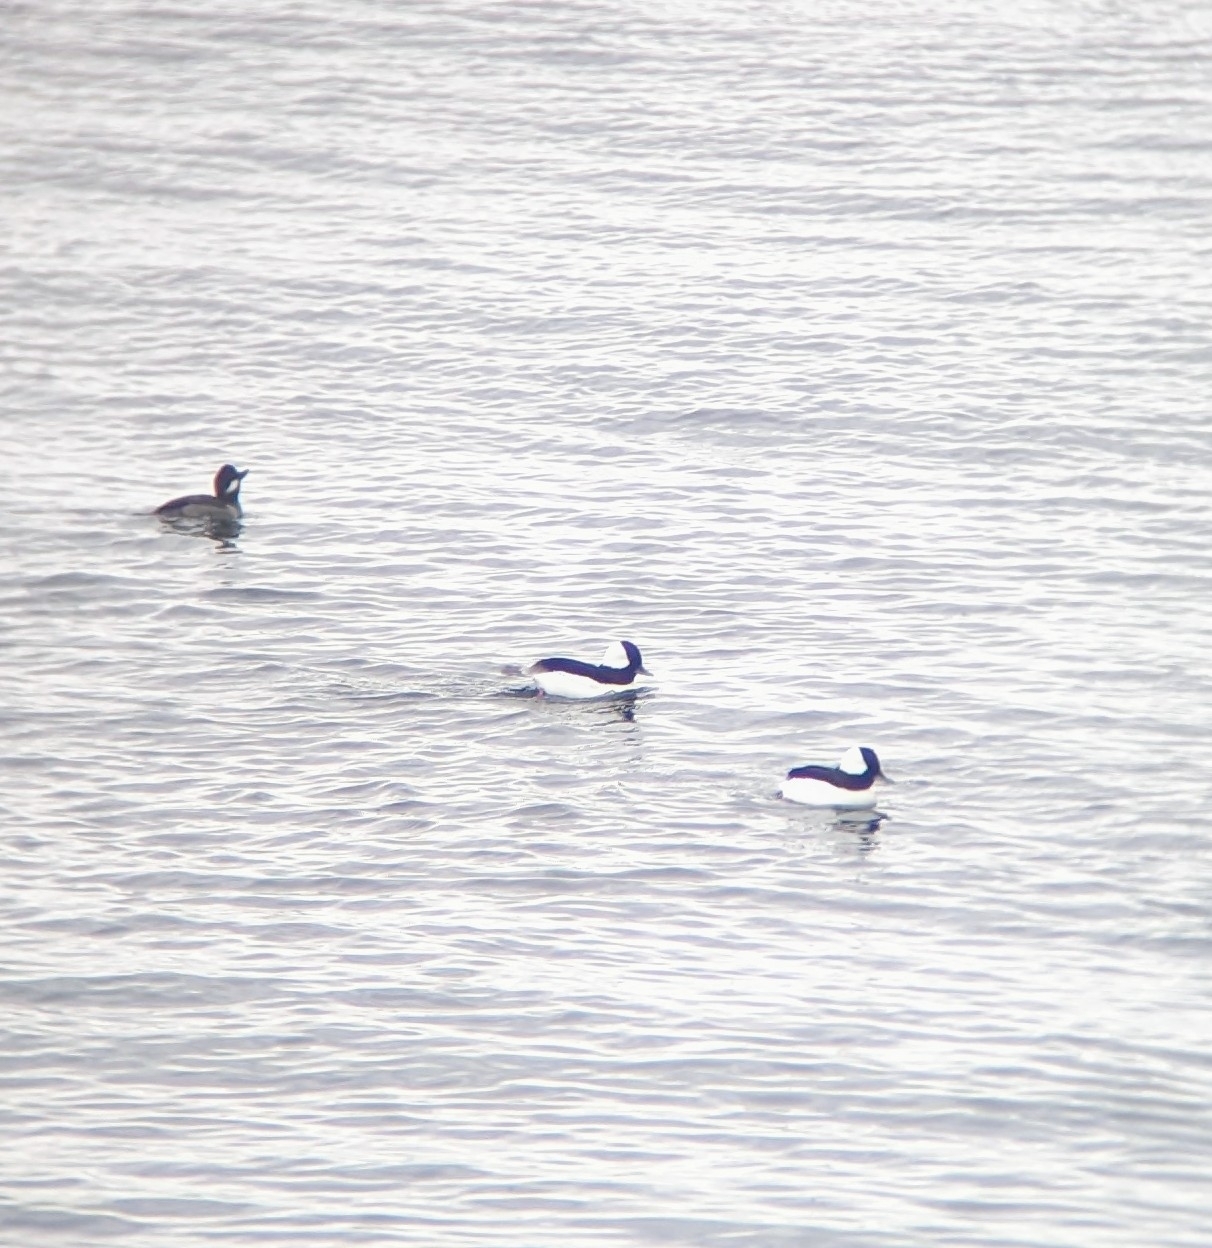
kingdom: Animalia
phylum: Chordata
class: Aves
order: Anseriformes
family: Anatidae
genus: Bucephala
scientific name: Bucephala albeola
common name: Bufflehead
